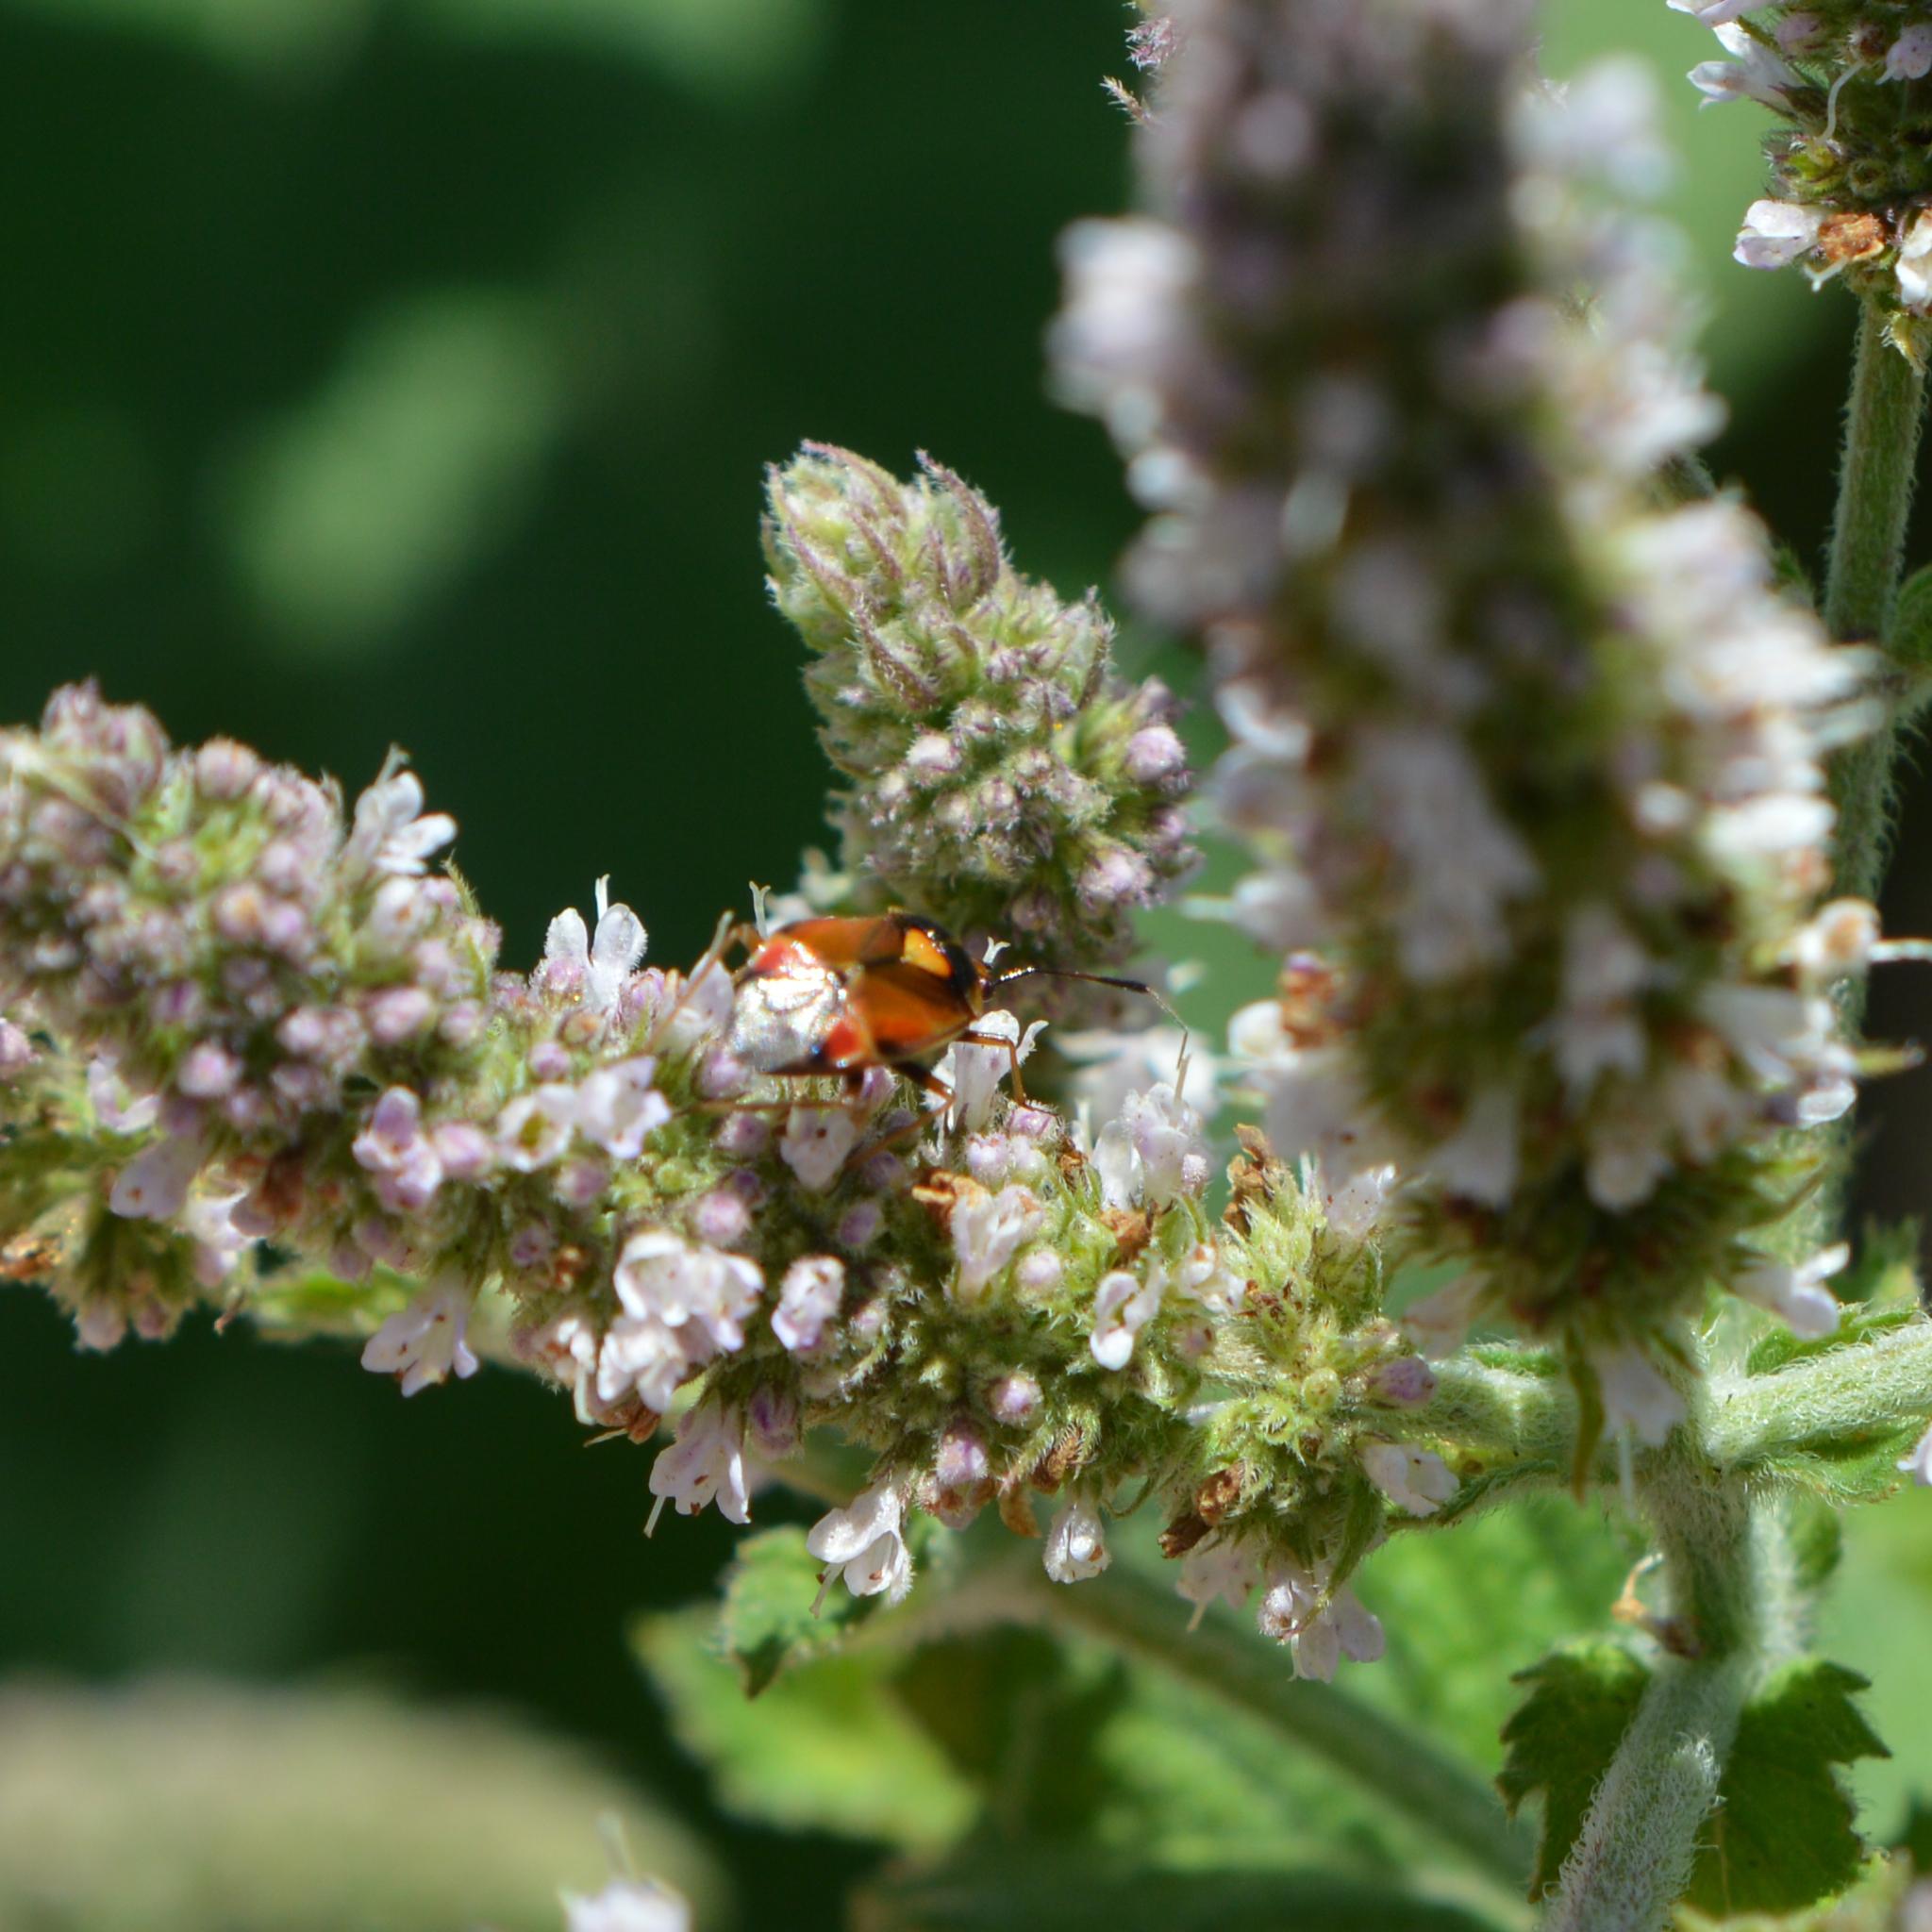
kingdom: Animalia
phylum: Arthropoda
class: Insecta
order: Hemiptera
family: Miridae
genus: Deraeocoris
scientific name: Deraeocoris ruber
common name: Plant bug
